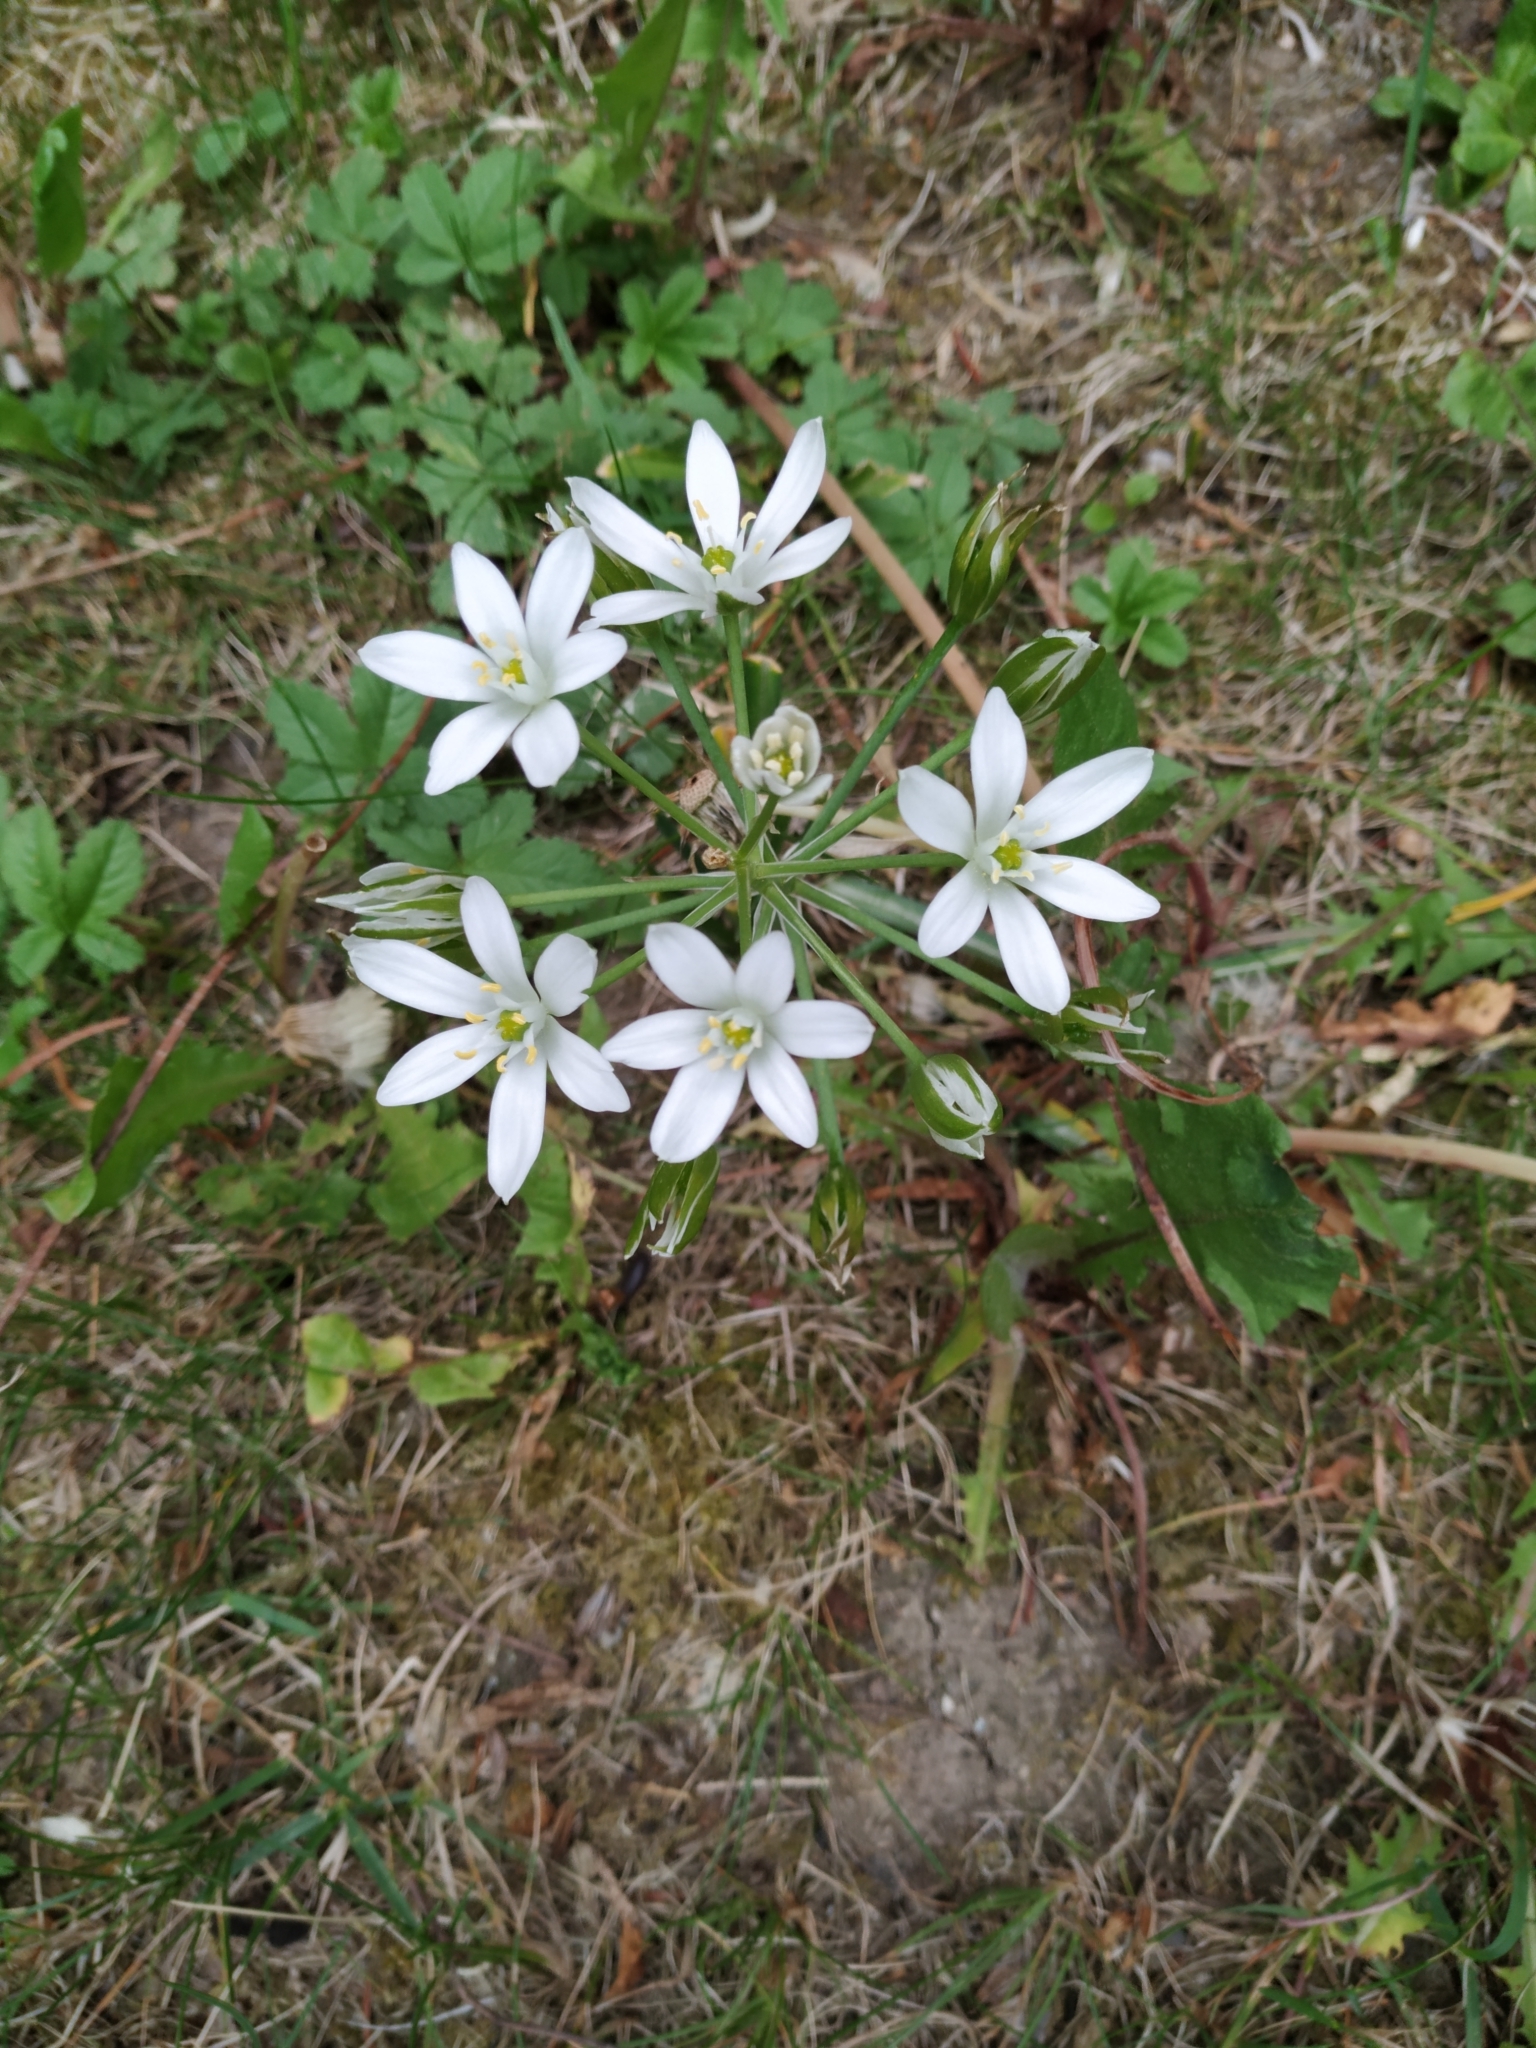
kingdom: Plantae
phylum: Tracheophyta
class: Liliopsida
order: Asparagales
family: Asparagaceae
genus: Ornithogalum
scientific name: Ornithogalum umbellatum
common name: Garden star-of-bethlehem
